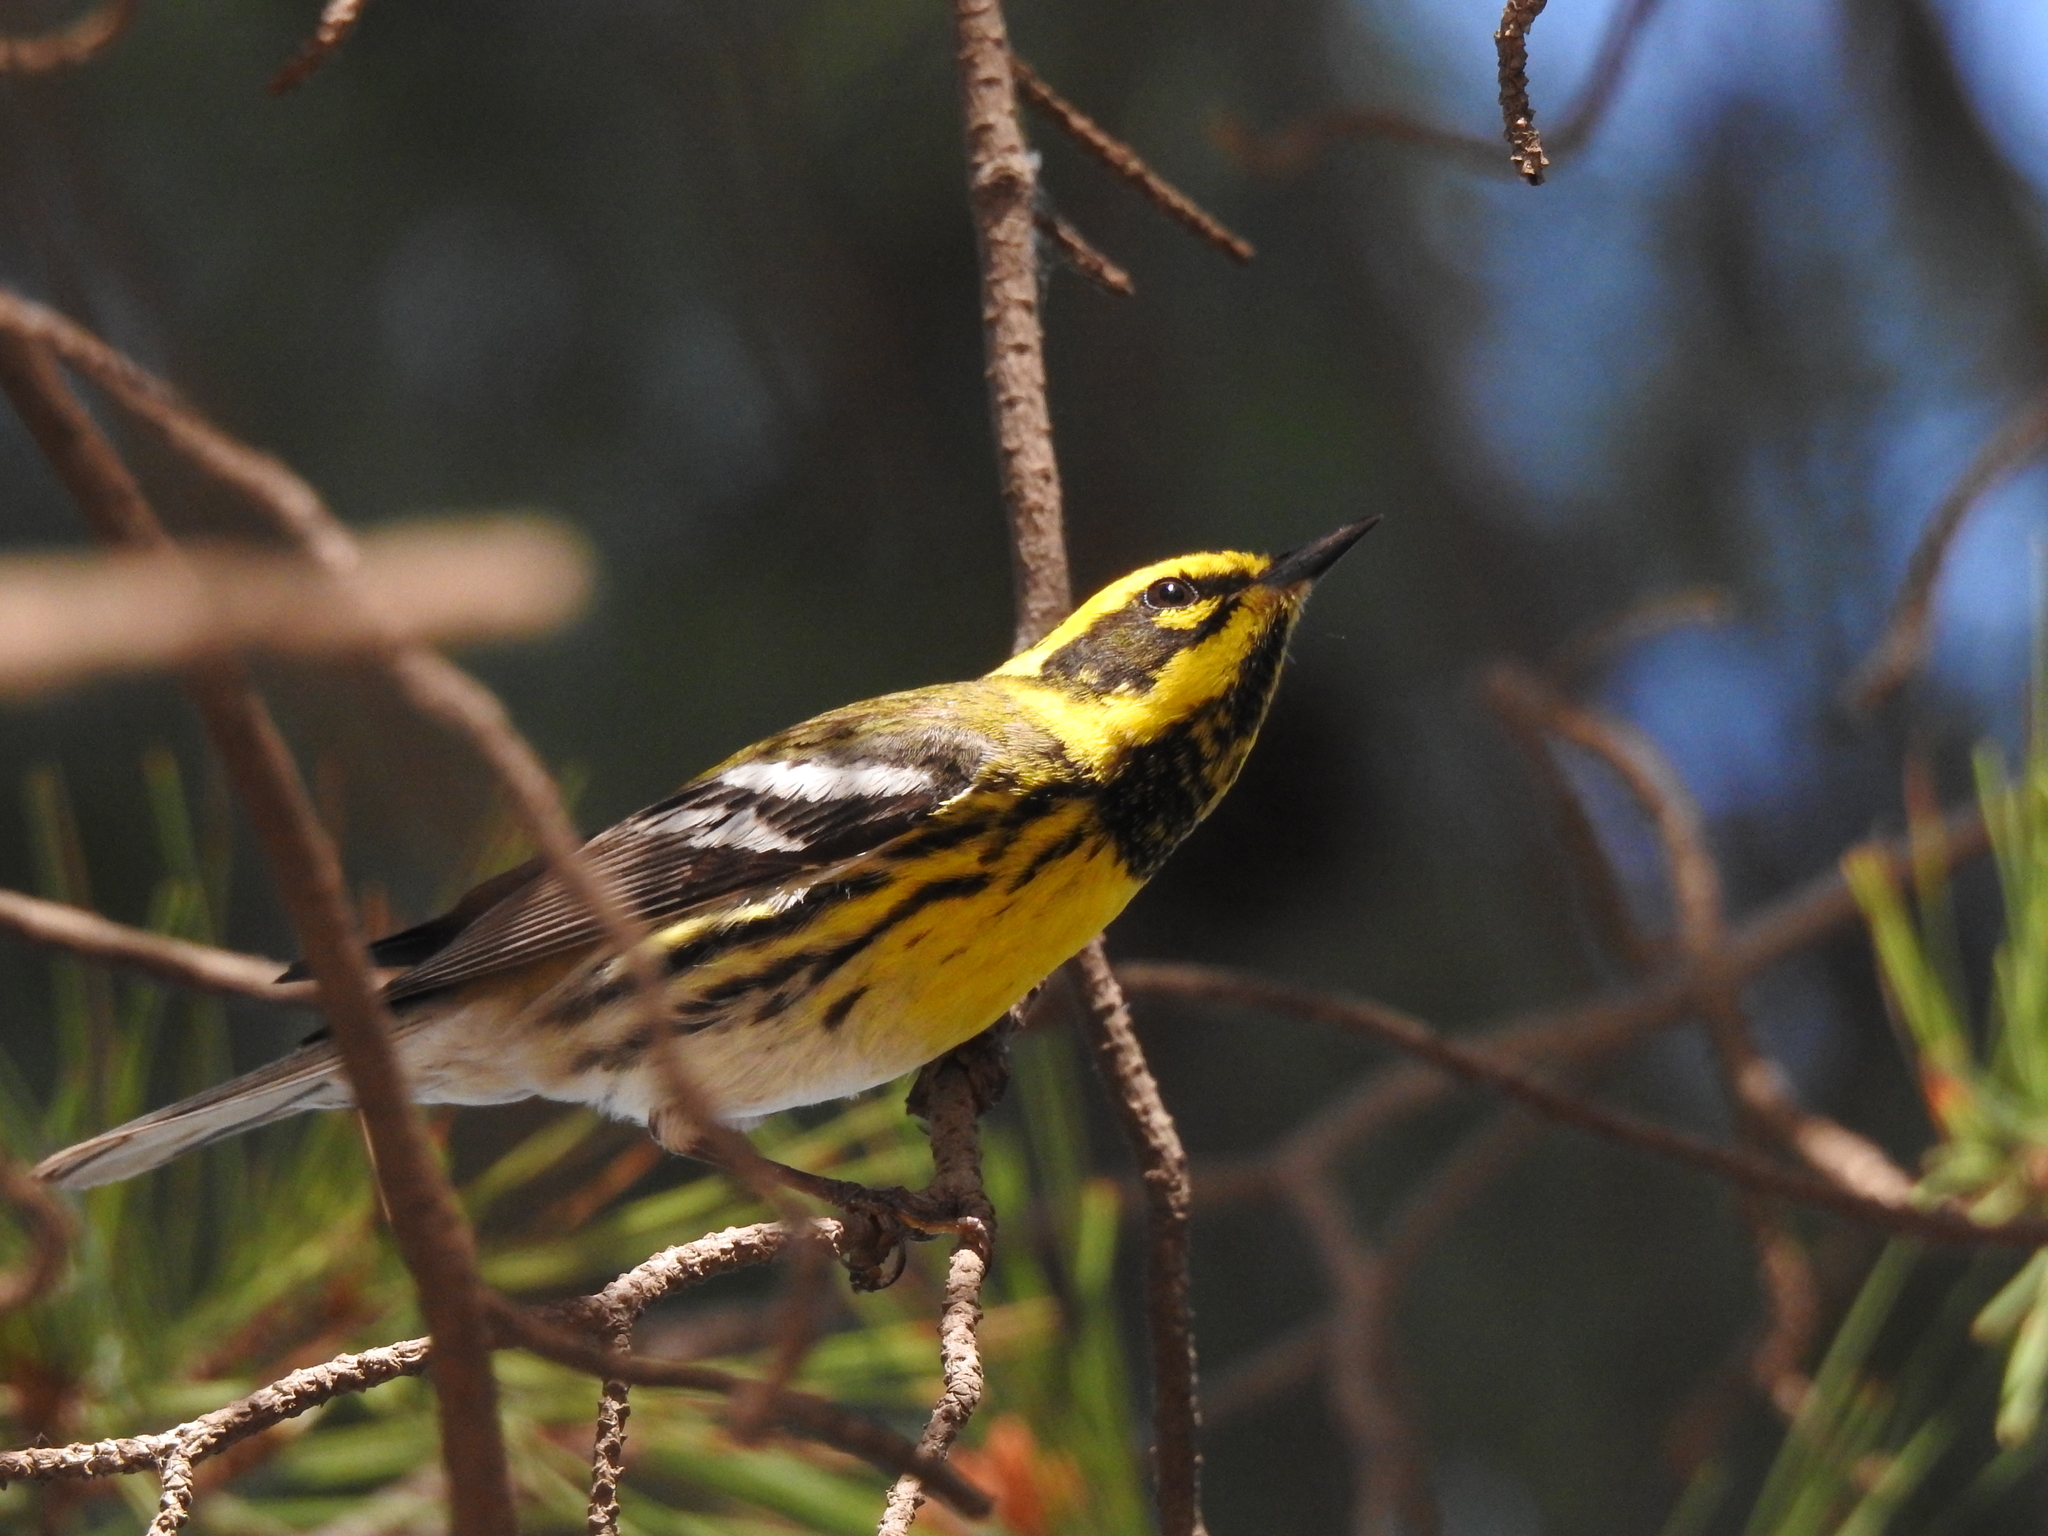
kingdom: Animalia
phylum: Chordata
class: Aves
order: Passeriformes
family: Parulidae
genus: Setophaga
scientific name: Setophaga townsendi
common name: Townsend's warbler
